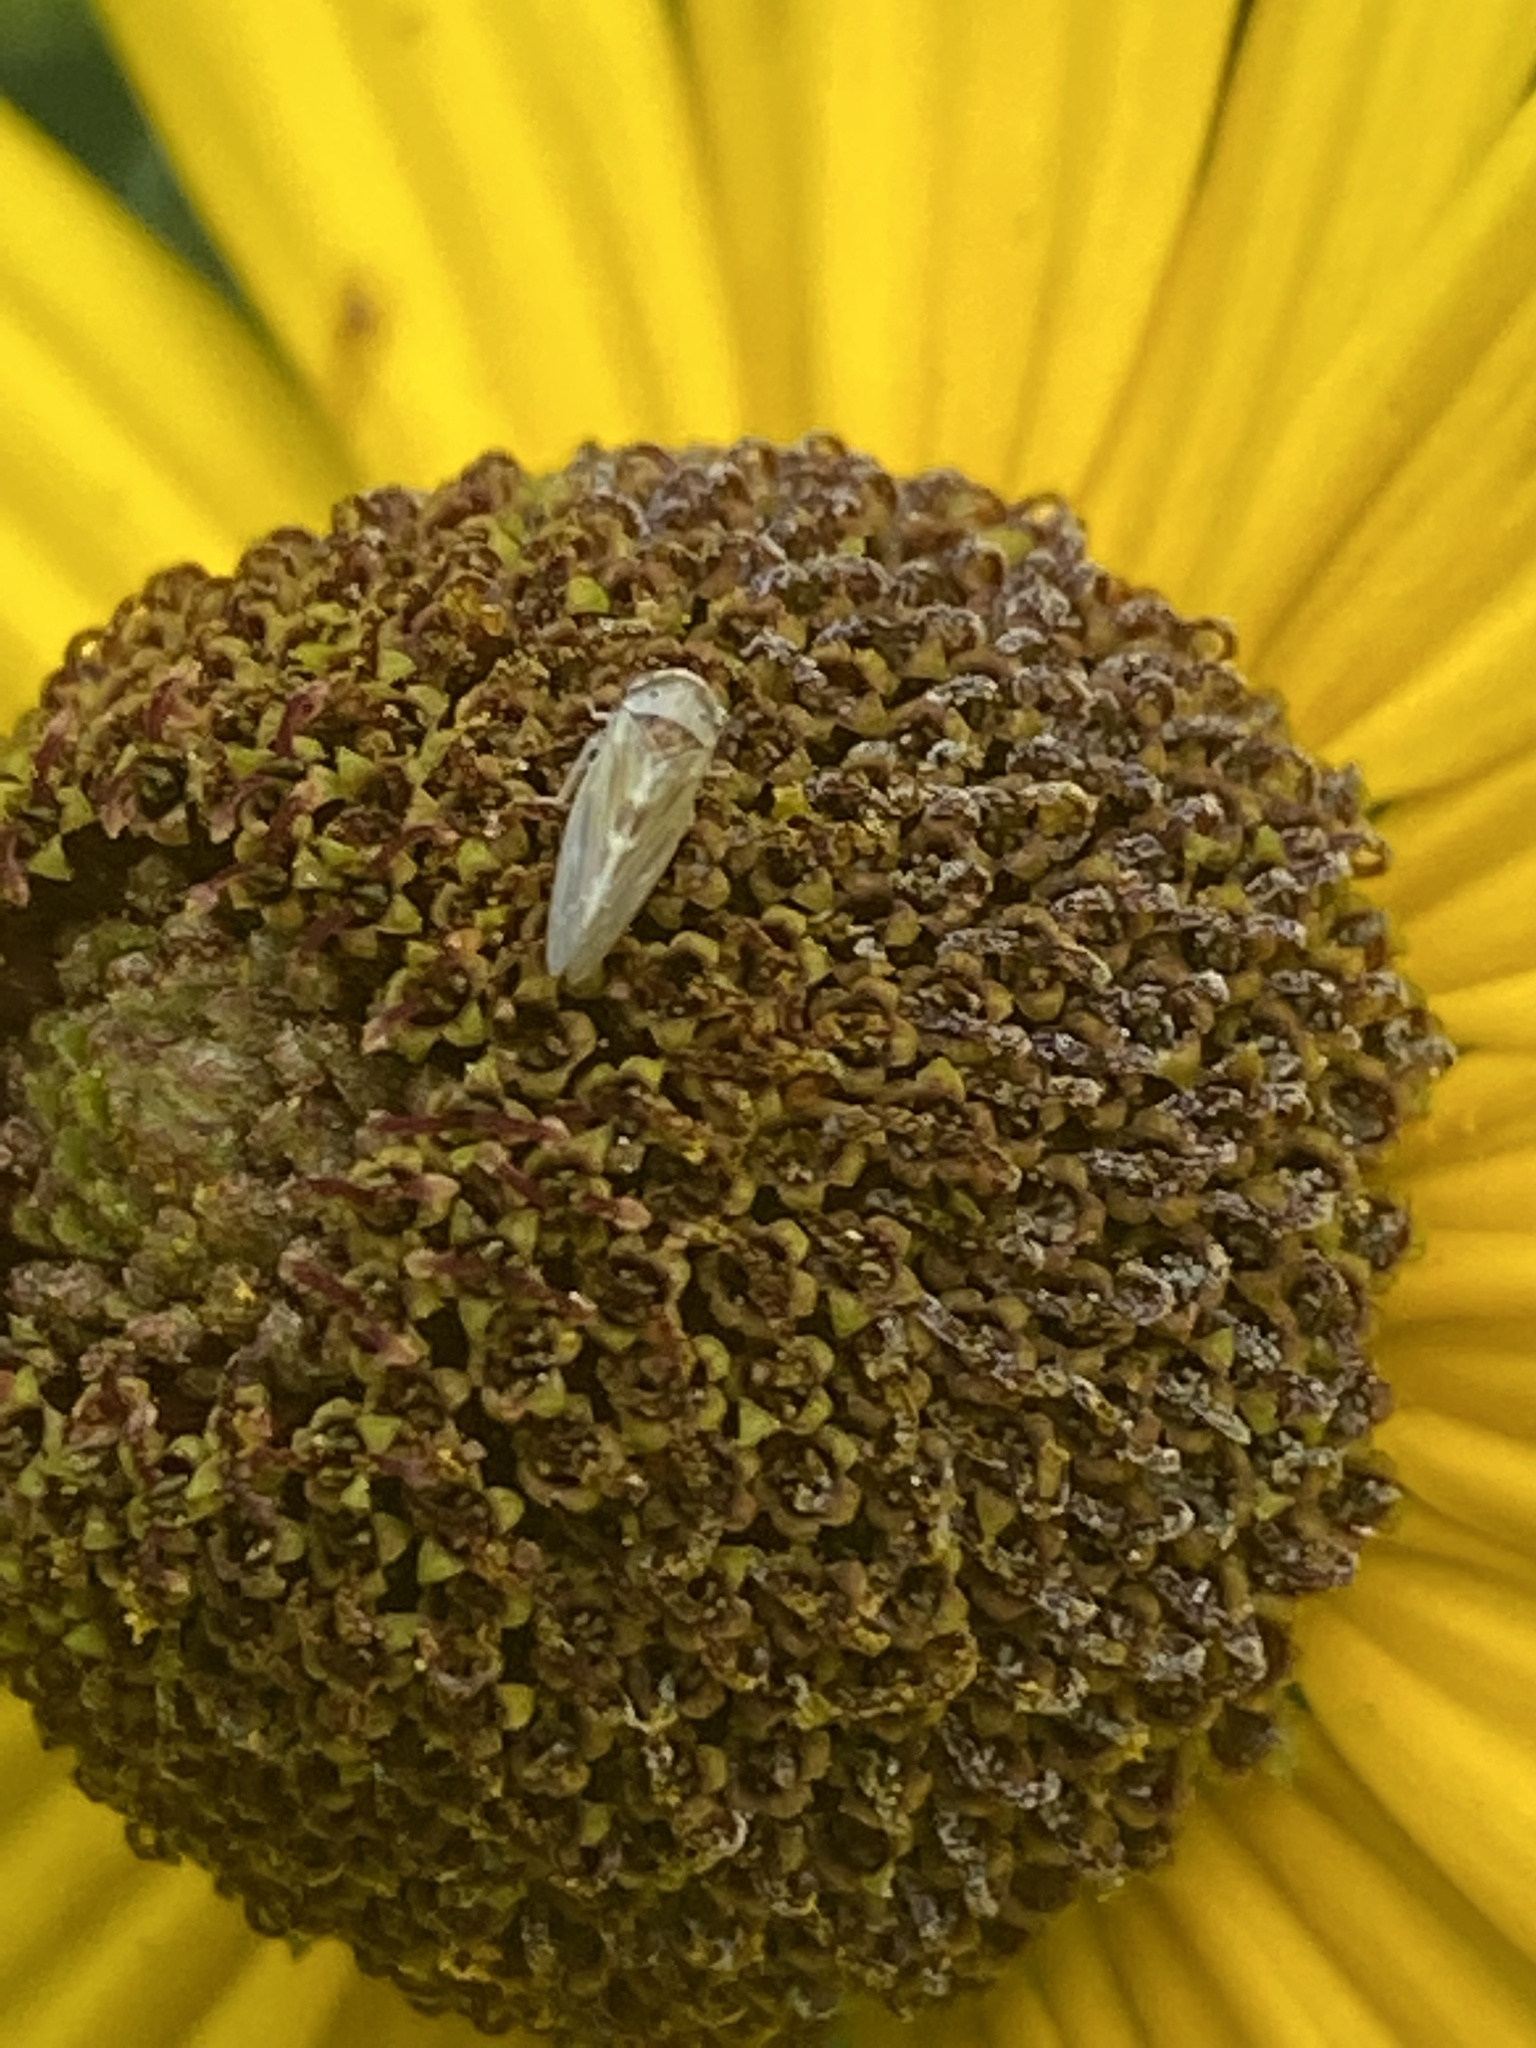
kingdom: Animalia
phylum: Arthropoda
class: Insecta
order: Hemiptera
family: Cicadellidae
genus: Agalliopsis
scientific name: Agalliopsis ancistra
